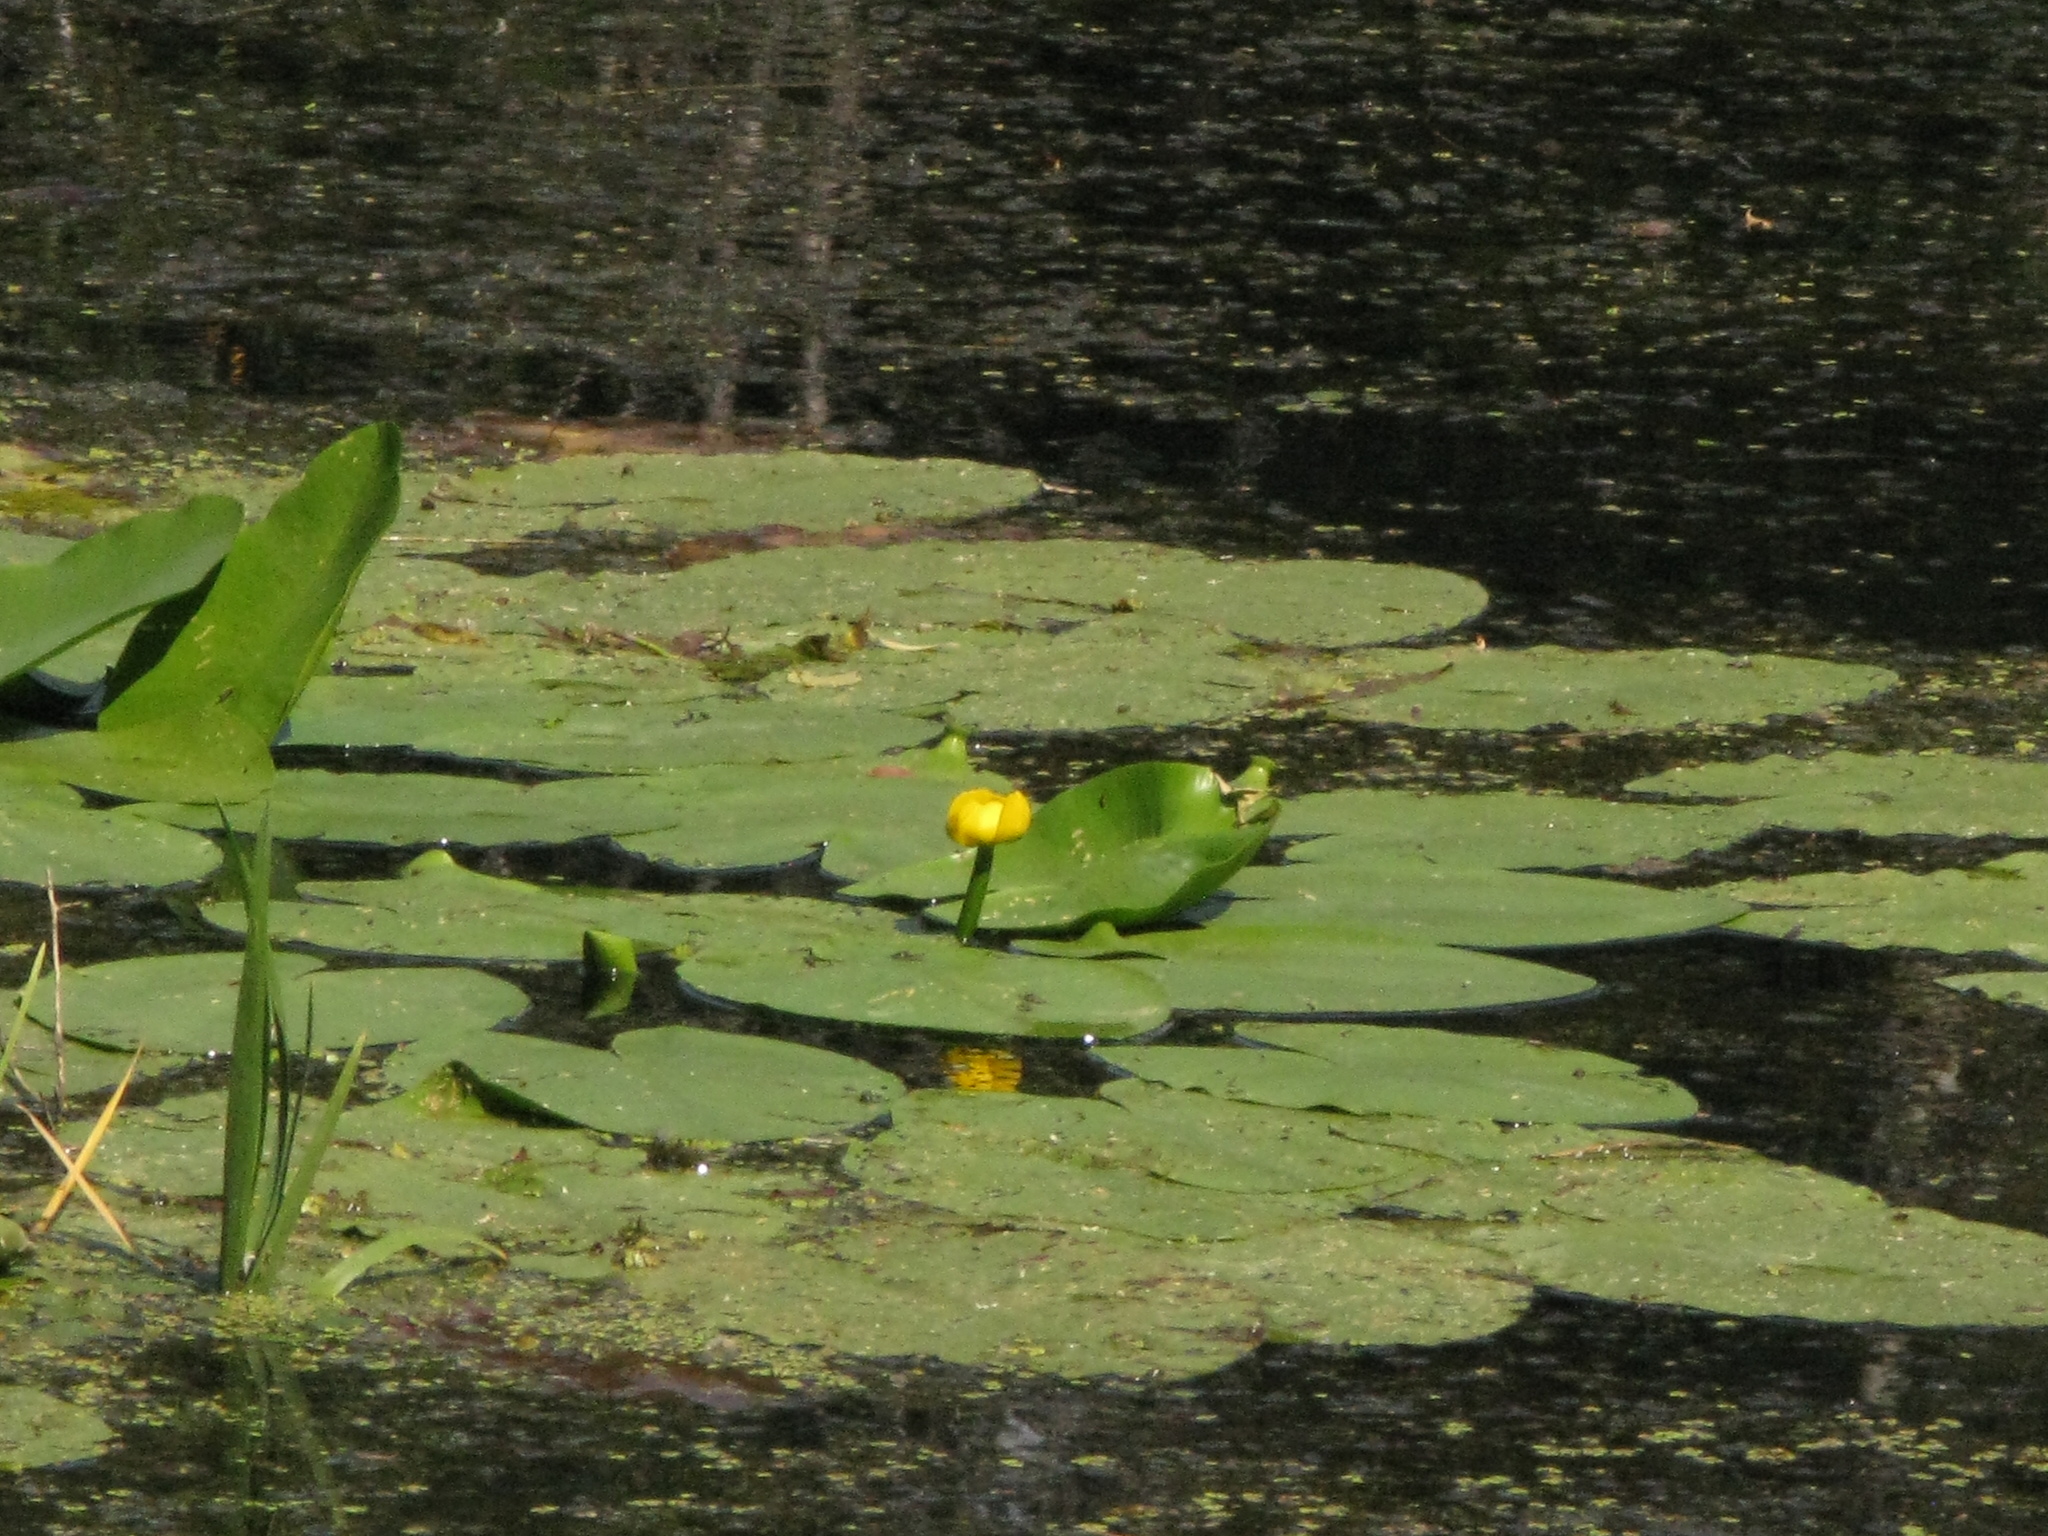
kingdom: Plantae
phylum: Tracheophyta
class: Magnoliopsida
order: Nymphaeales
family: Nymphaeaceae
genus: Nuphar
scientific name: Nuphar lutea
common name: Yellow water-lily
